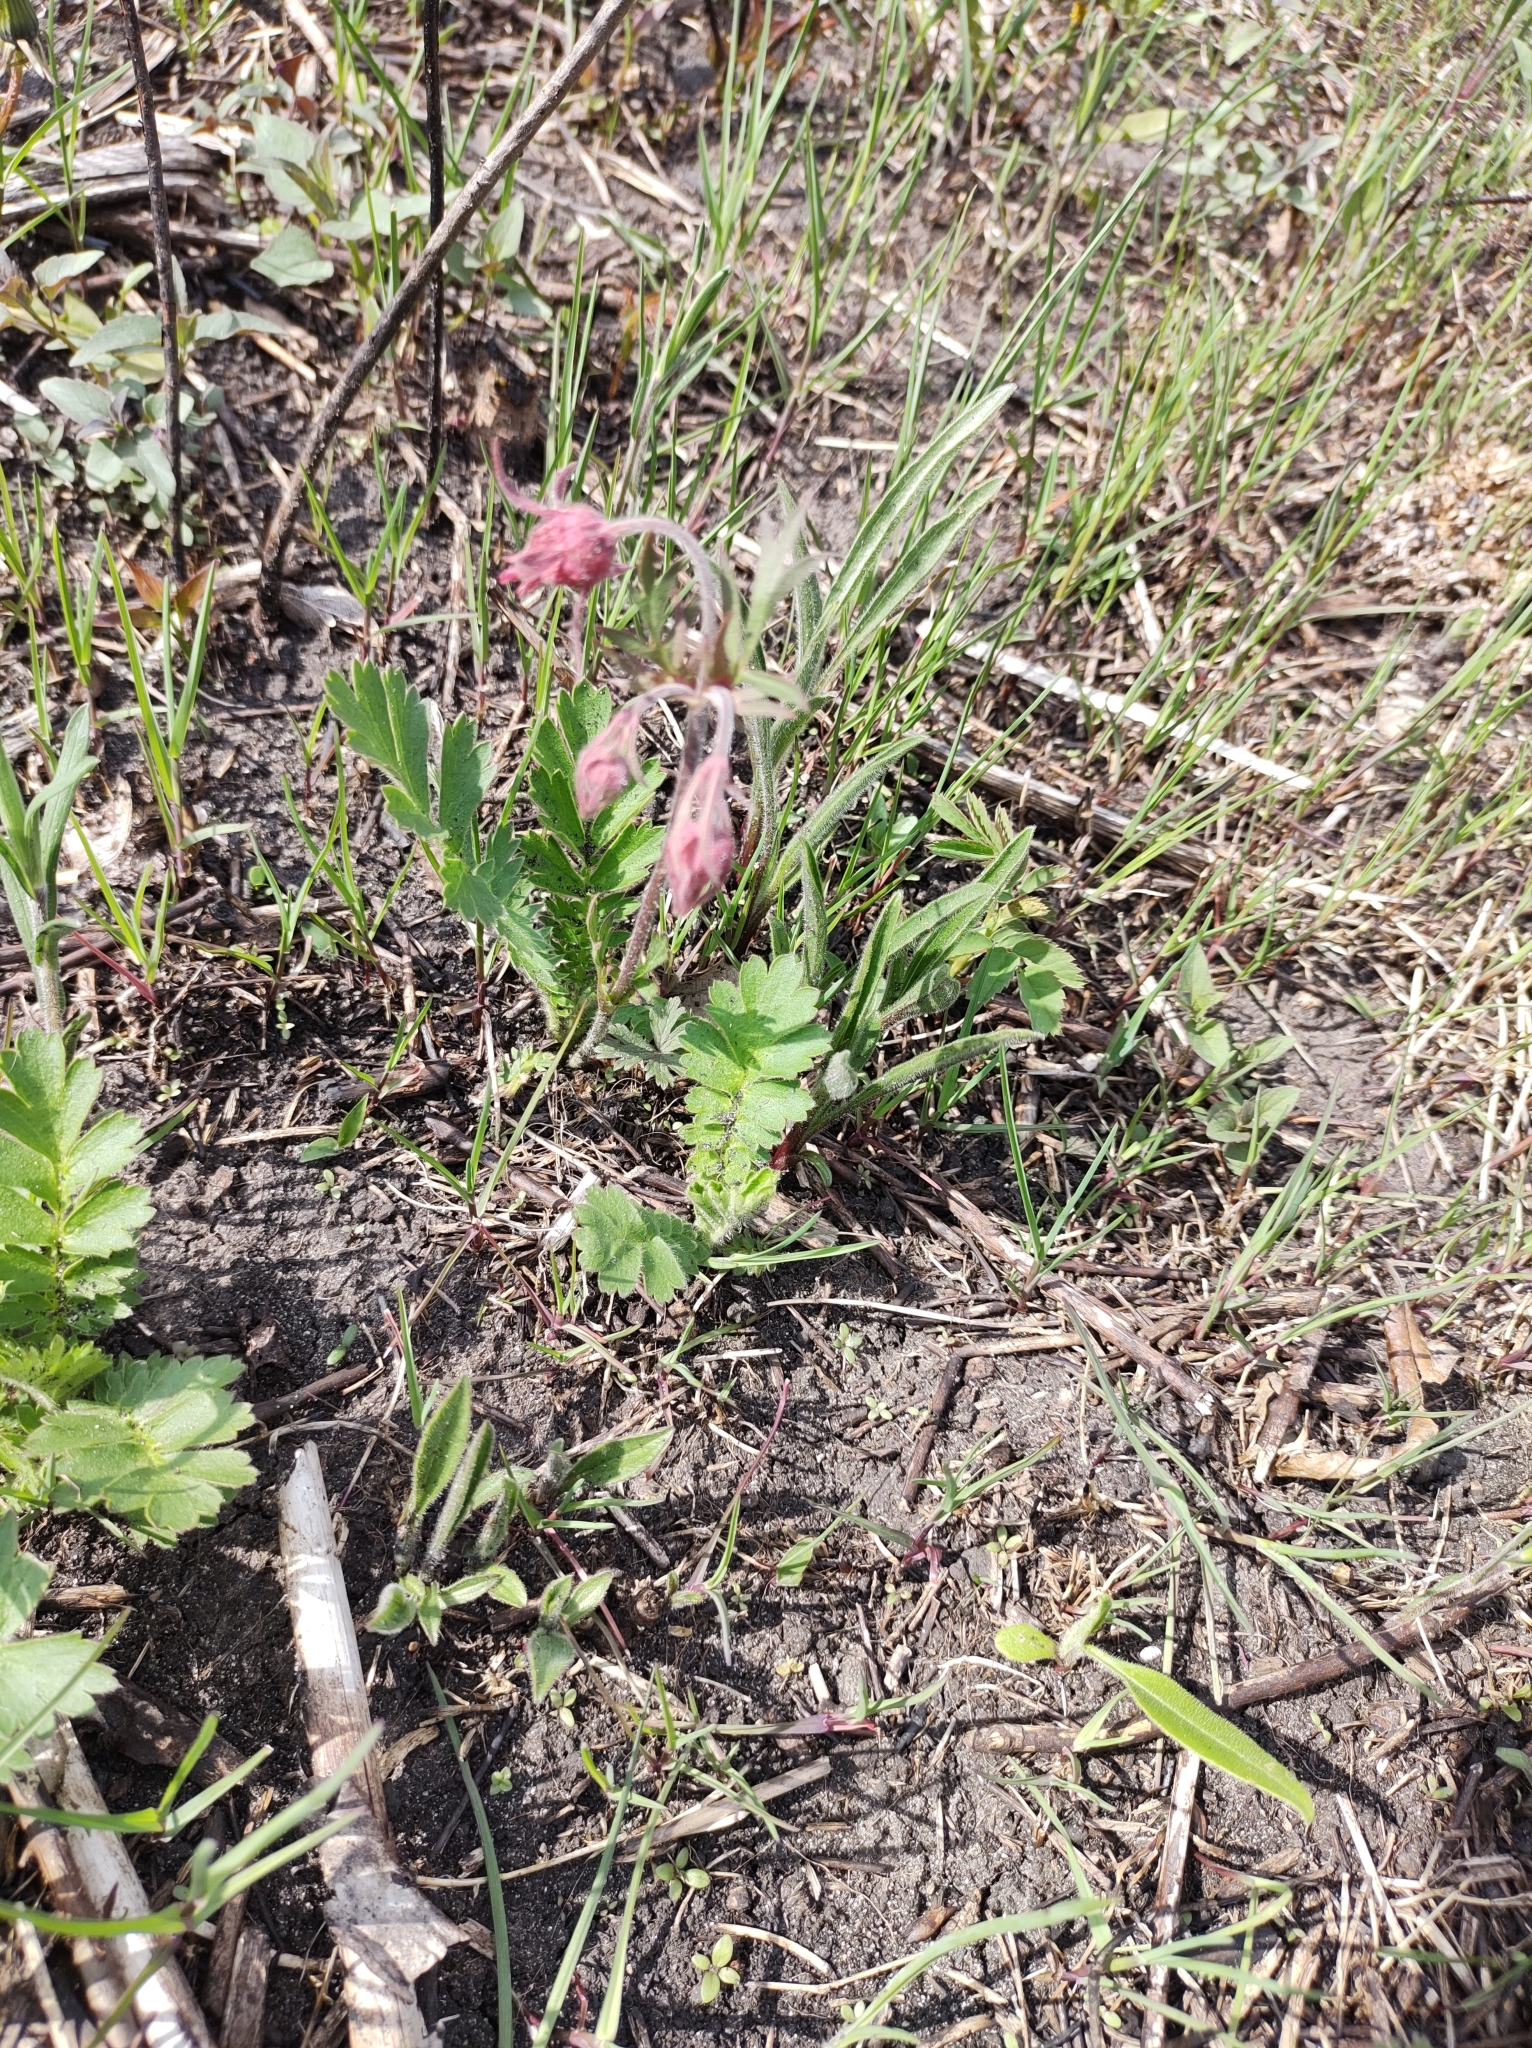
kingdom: Plantae
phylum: Tracheophyta
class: Magnoliopsida
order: Rosales
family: Rosaceae
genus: Geum
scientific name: Geum triflorum
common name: Old man's whiskers
